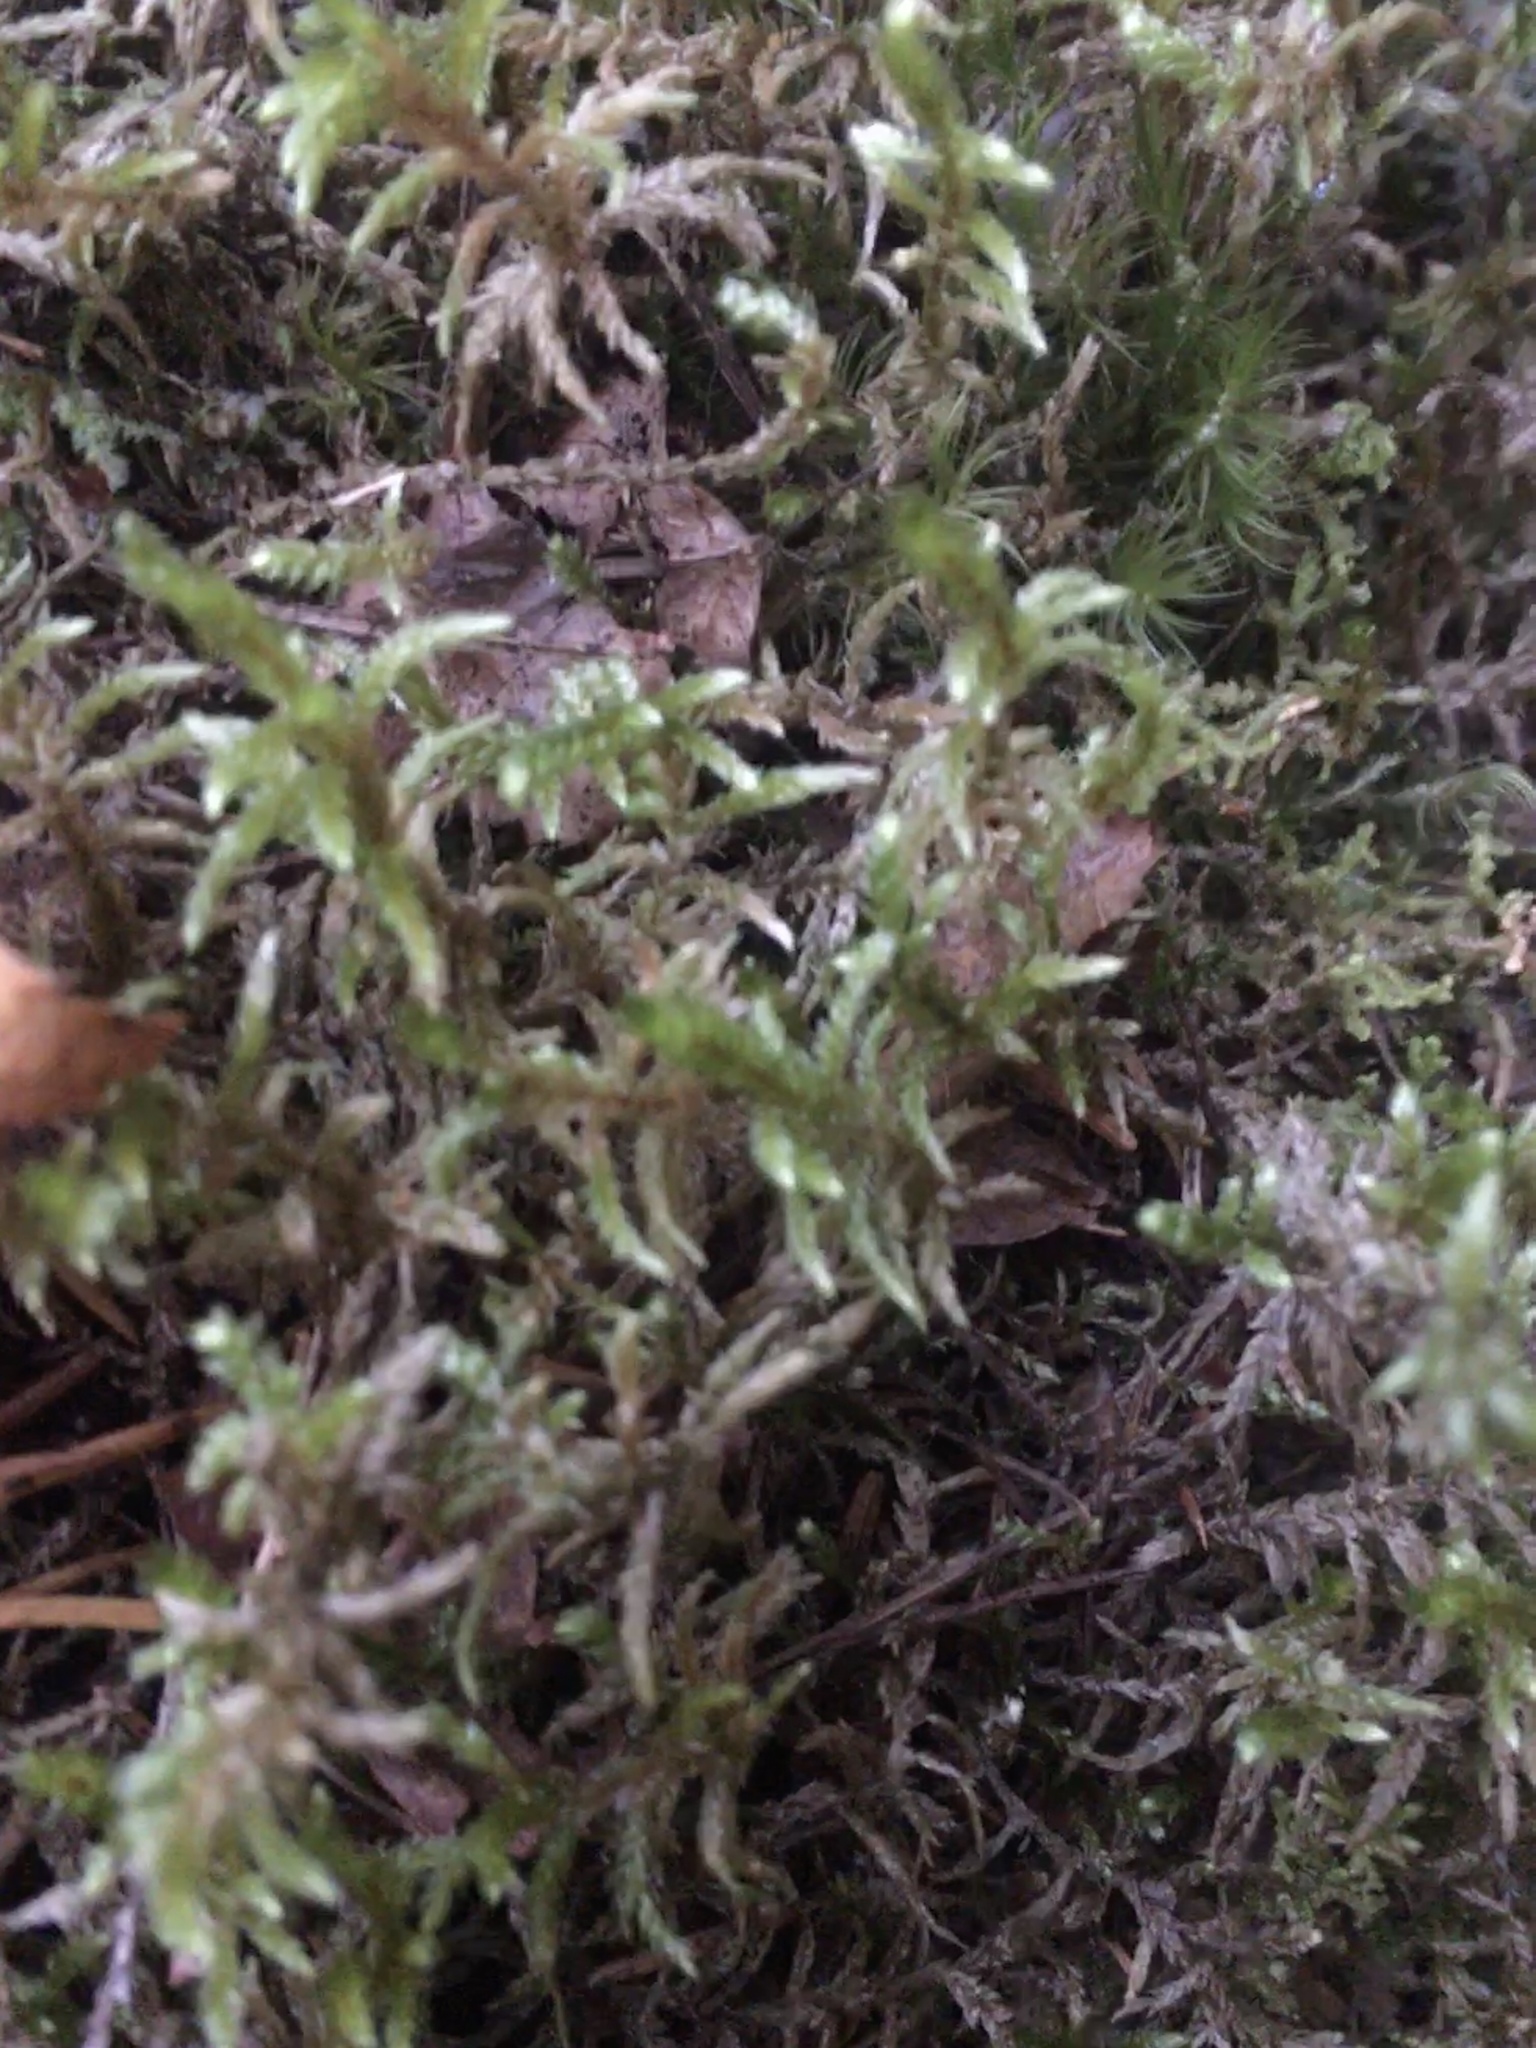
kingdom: Plantae
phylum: Bryophyta
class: Bryopsida
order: Hypnales
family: Hylocomiaceae
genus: Pleurozium
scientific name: Pleurozium schreberi
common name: Red-stemmed feather moss
